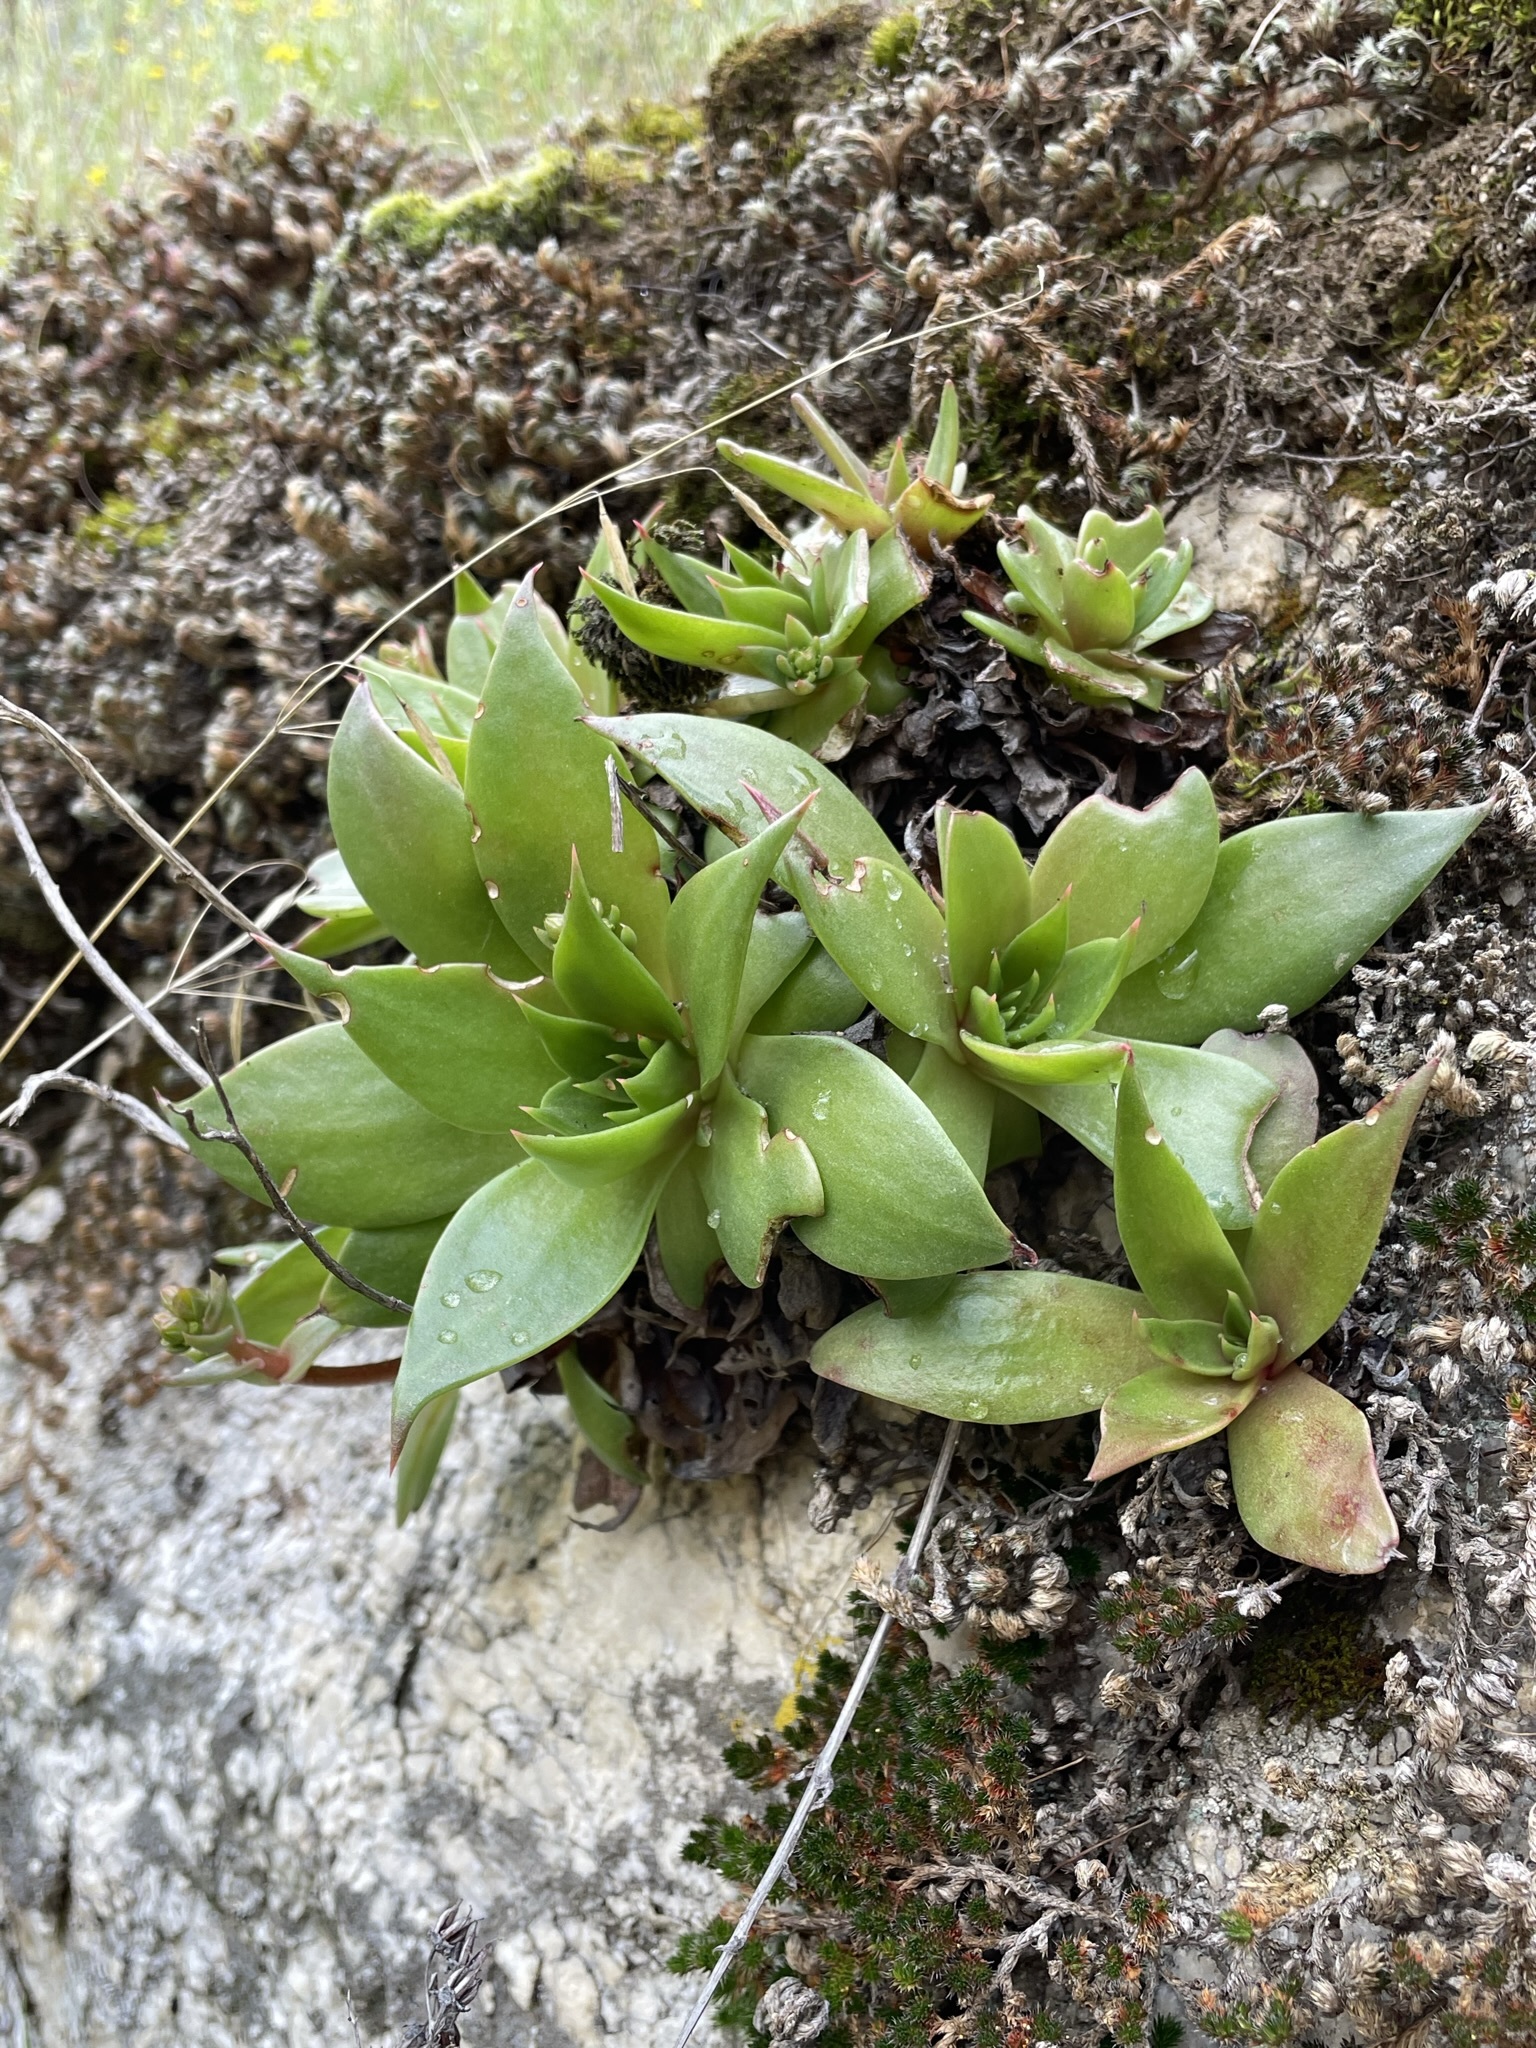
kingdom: Plantae
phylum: Tracheophyta
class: Magnoliopsida
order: Saxifragales
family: Crassulaceae
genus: Dudleya
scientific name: Dudleya cymosa
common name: Canyon dudleya
